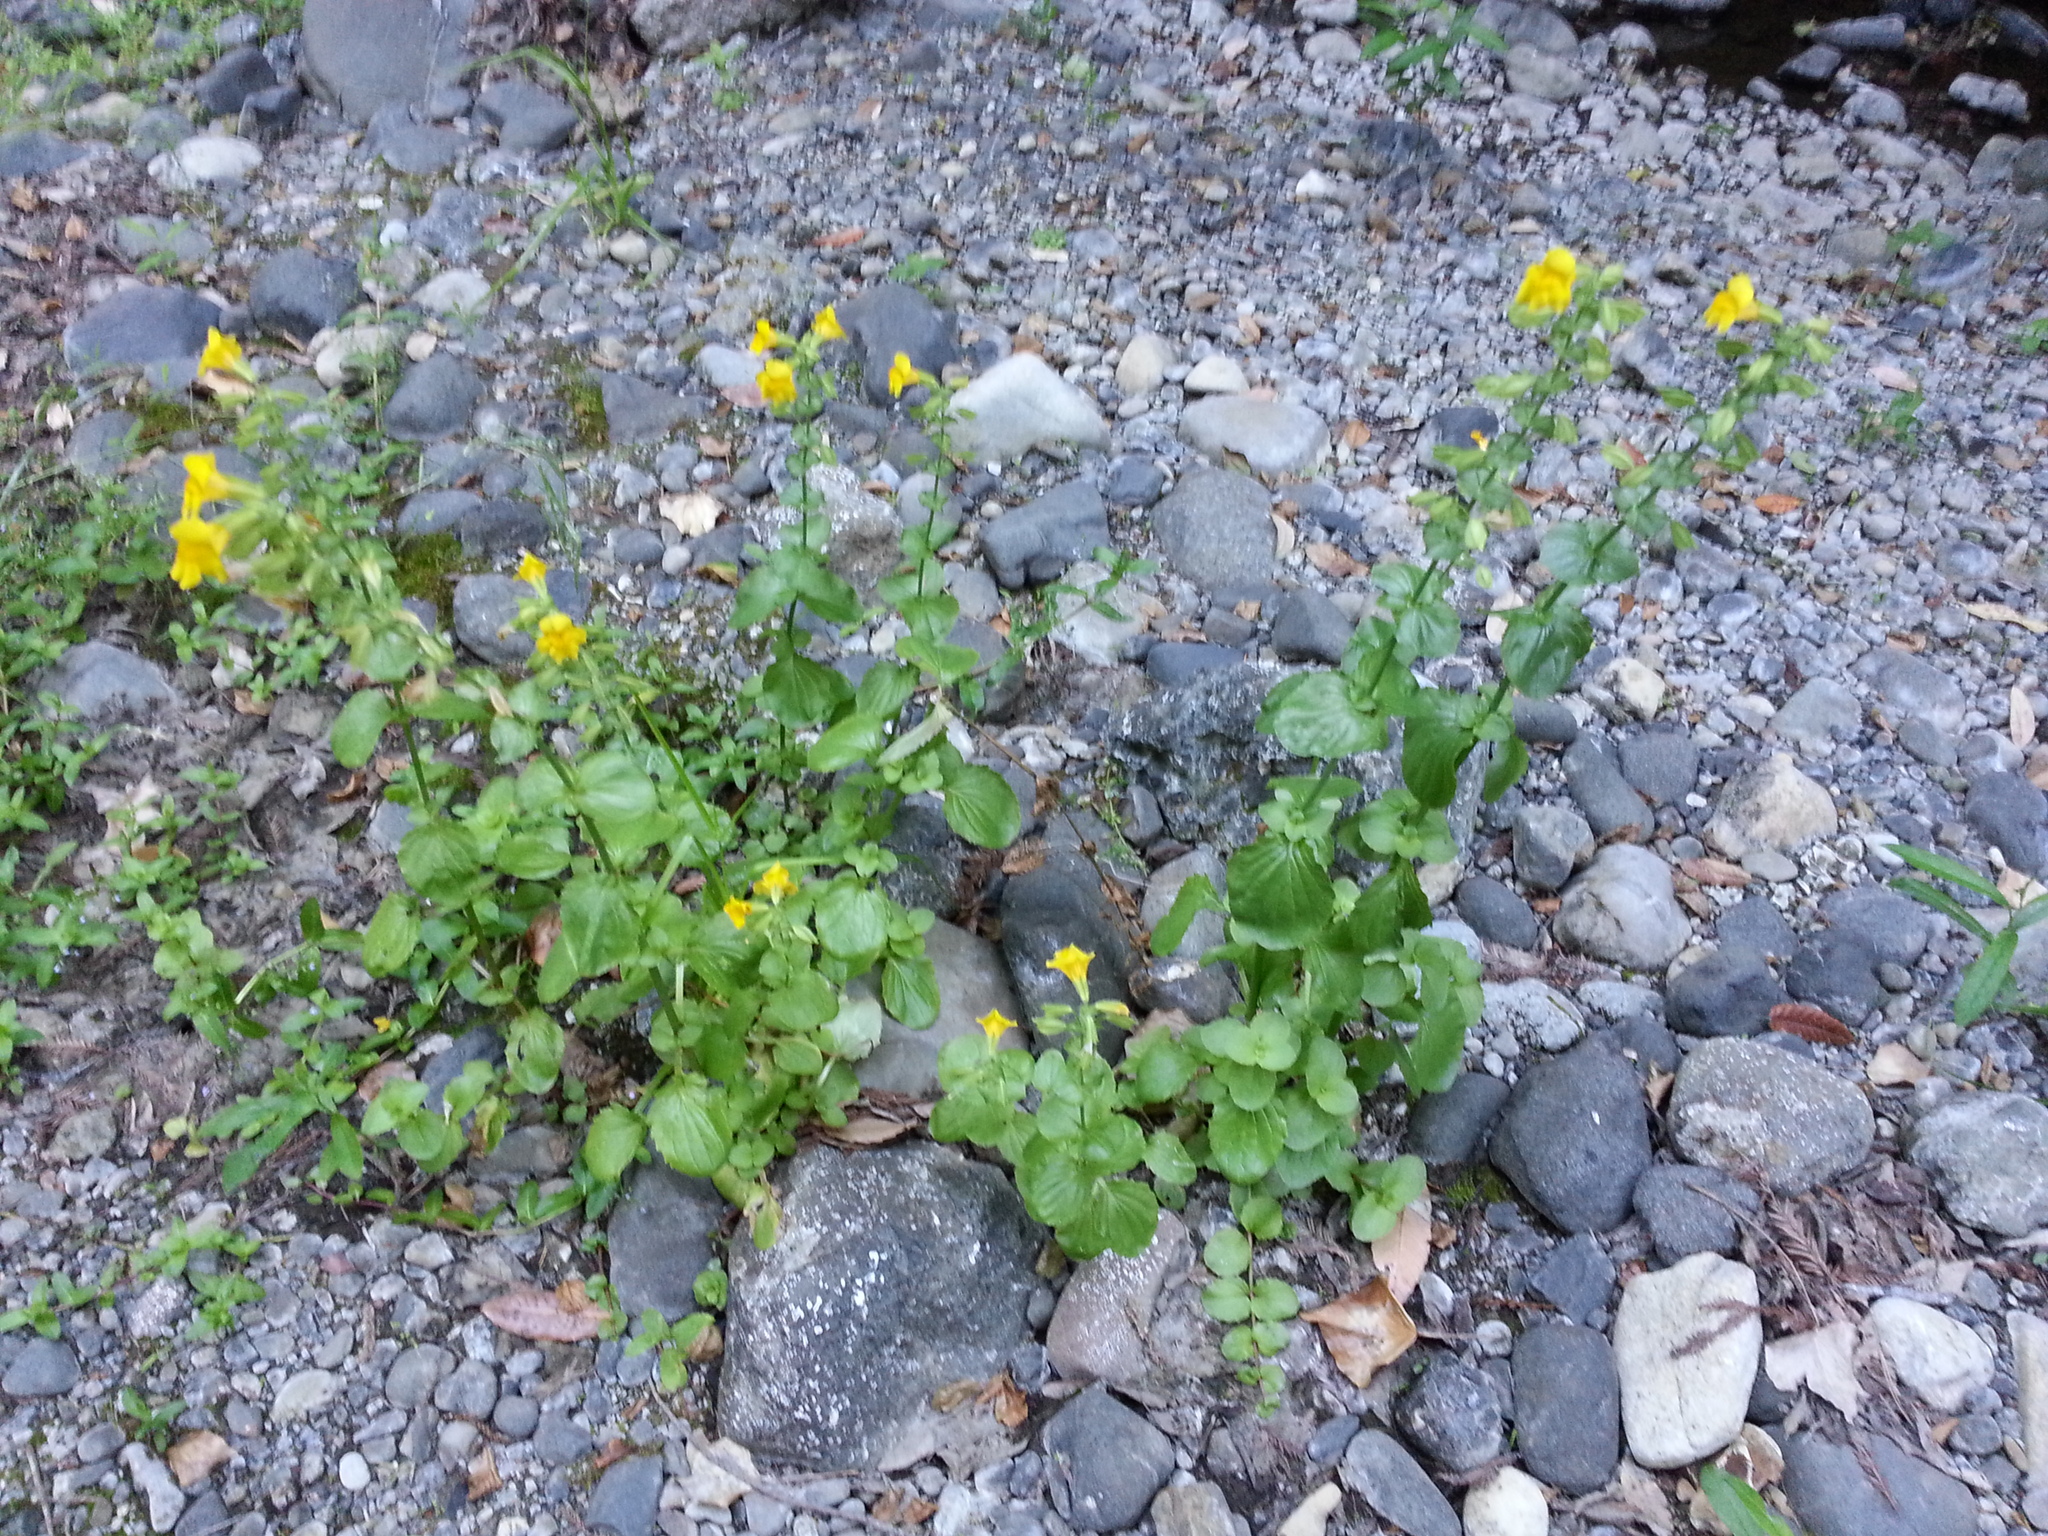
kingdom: Plantae
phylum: Tracheophyta
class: Magnoliopsida
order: Lamiales
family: Phrymaceae
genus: Erythranthe
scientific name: Erythranthe guttata
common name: Monkeyflower
